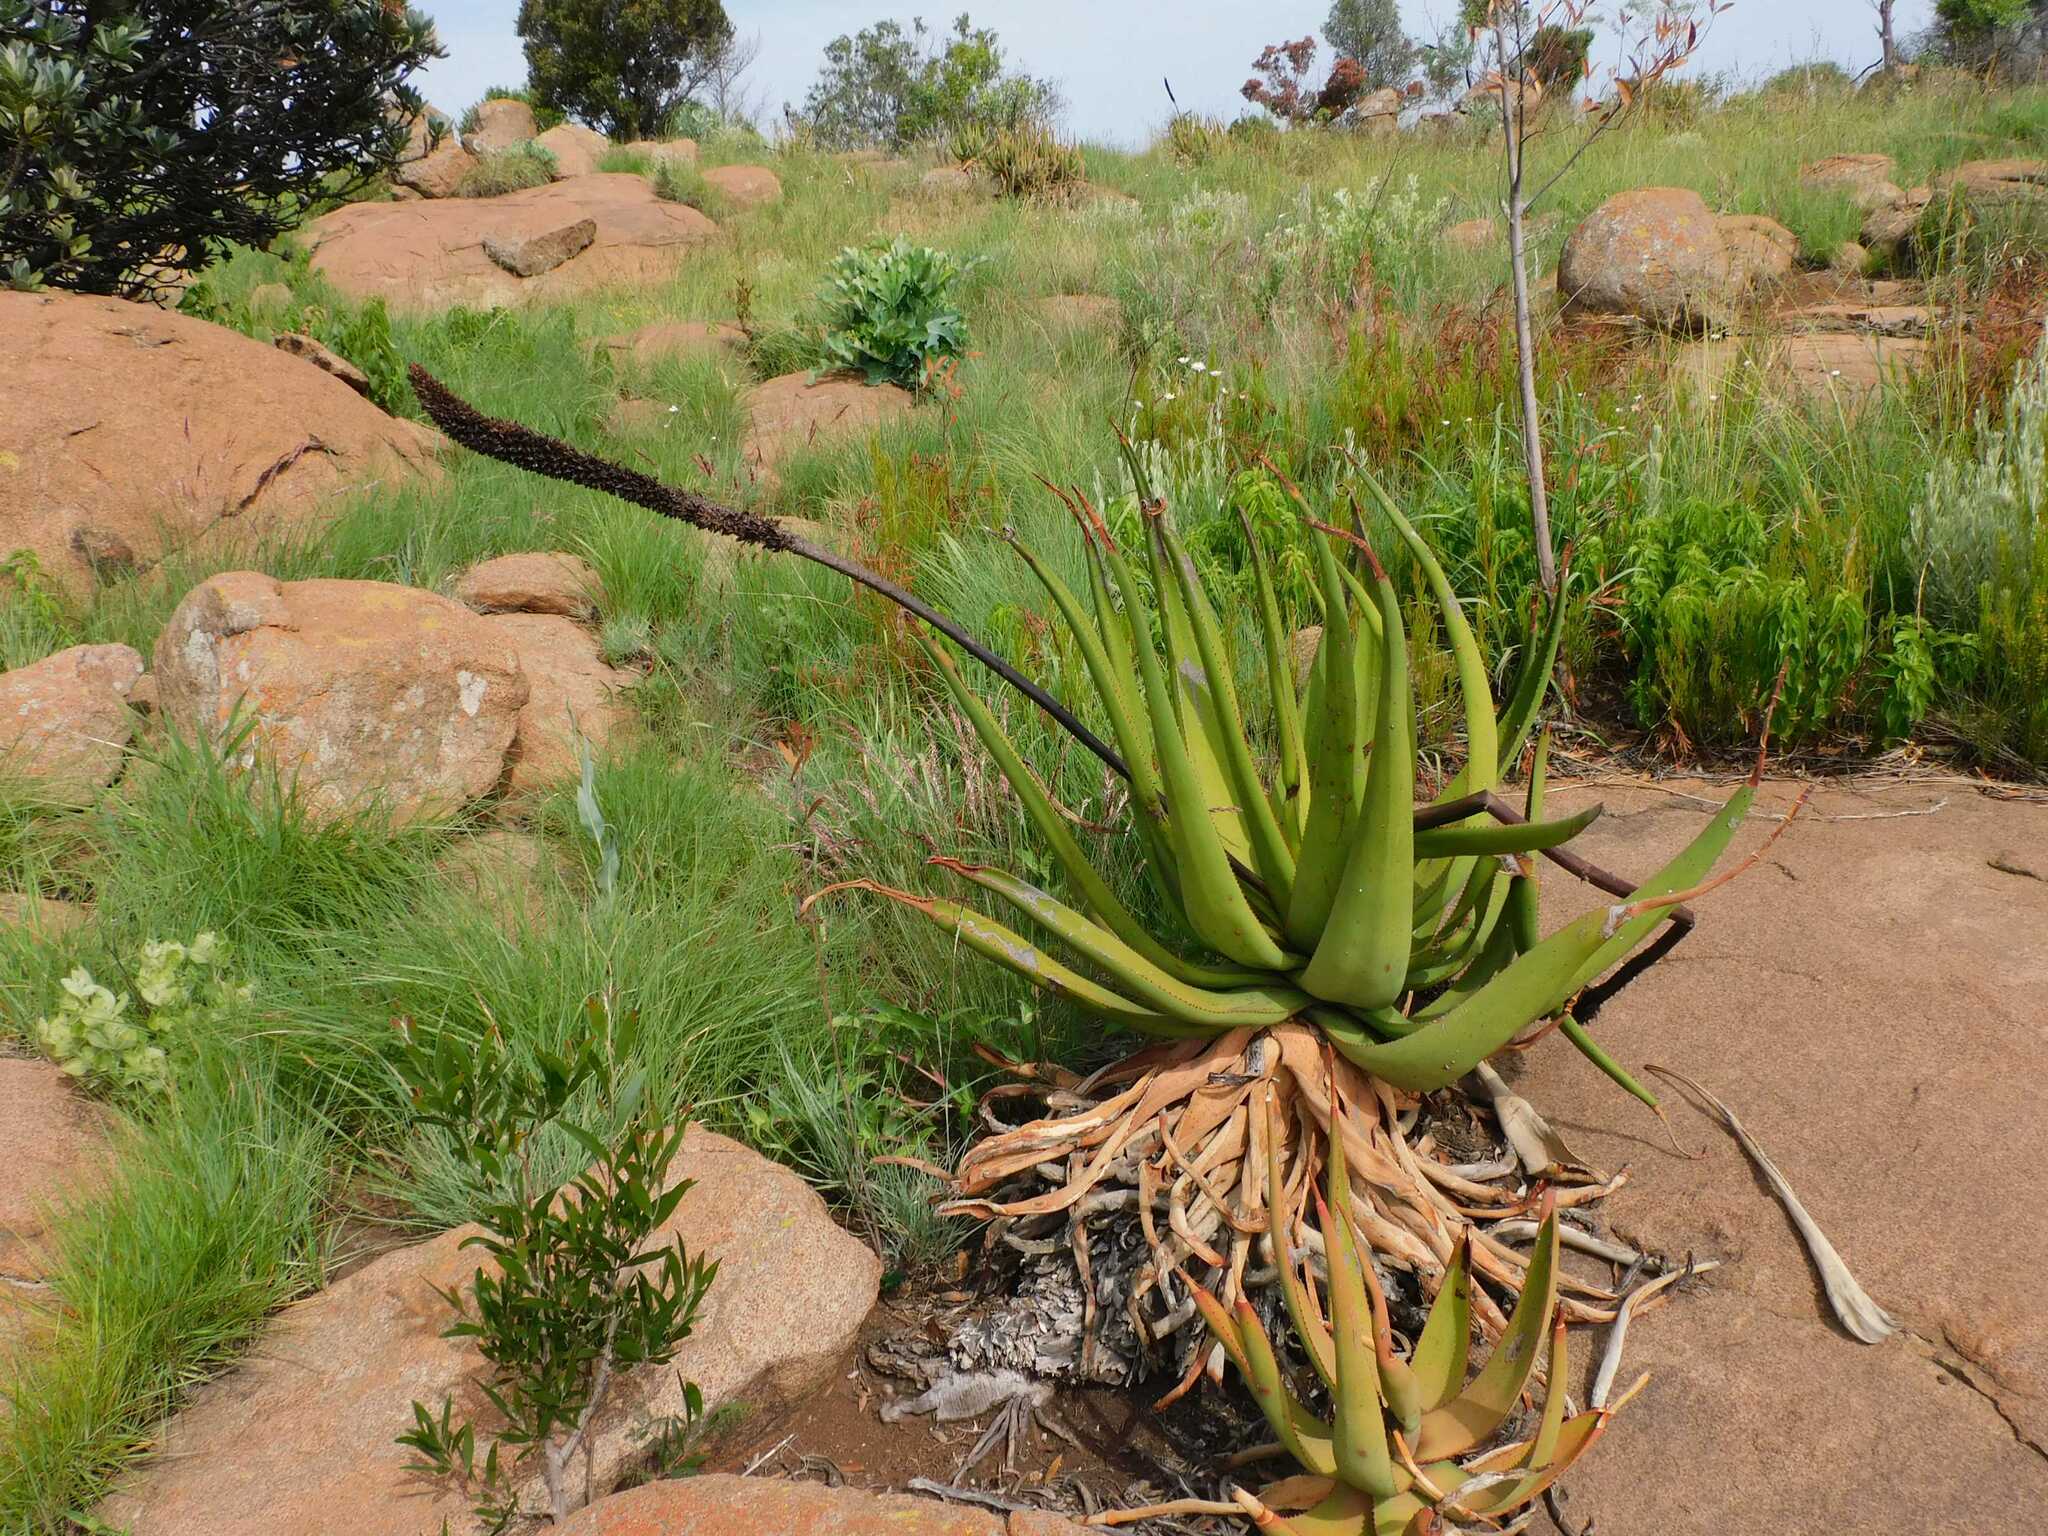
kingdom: Plantae
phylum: Tracheophyta
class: Liliopsida
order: Asparagales
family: Asphodelaceae
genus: Aloe
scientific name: Aloe barbara-jeppeae
